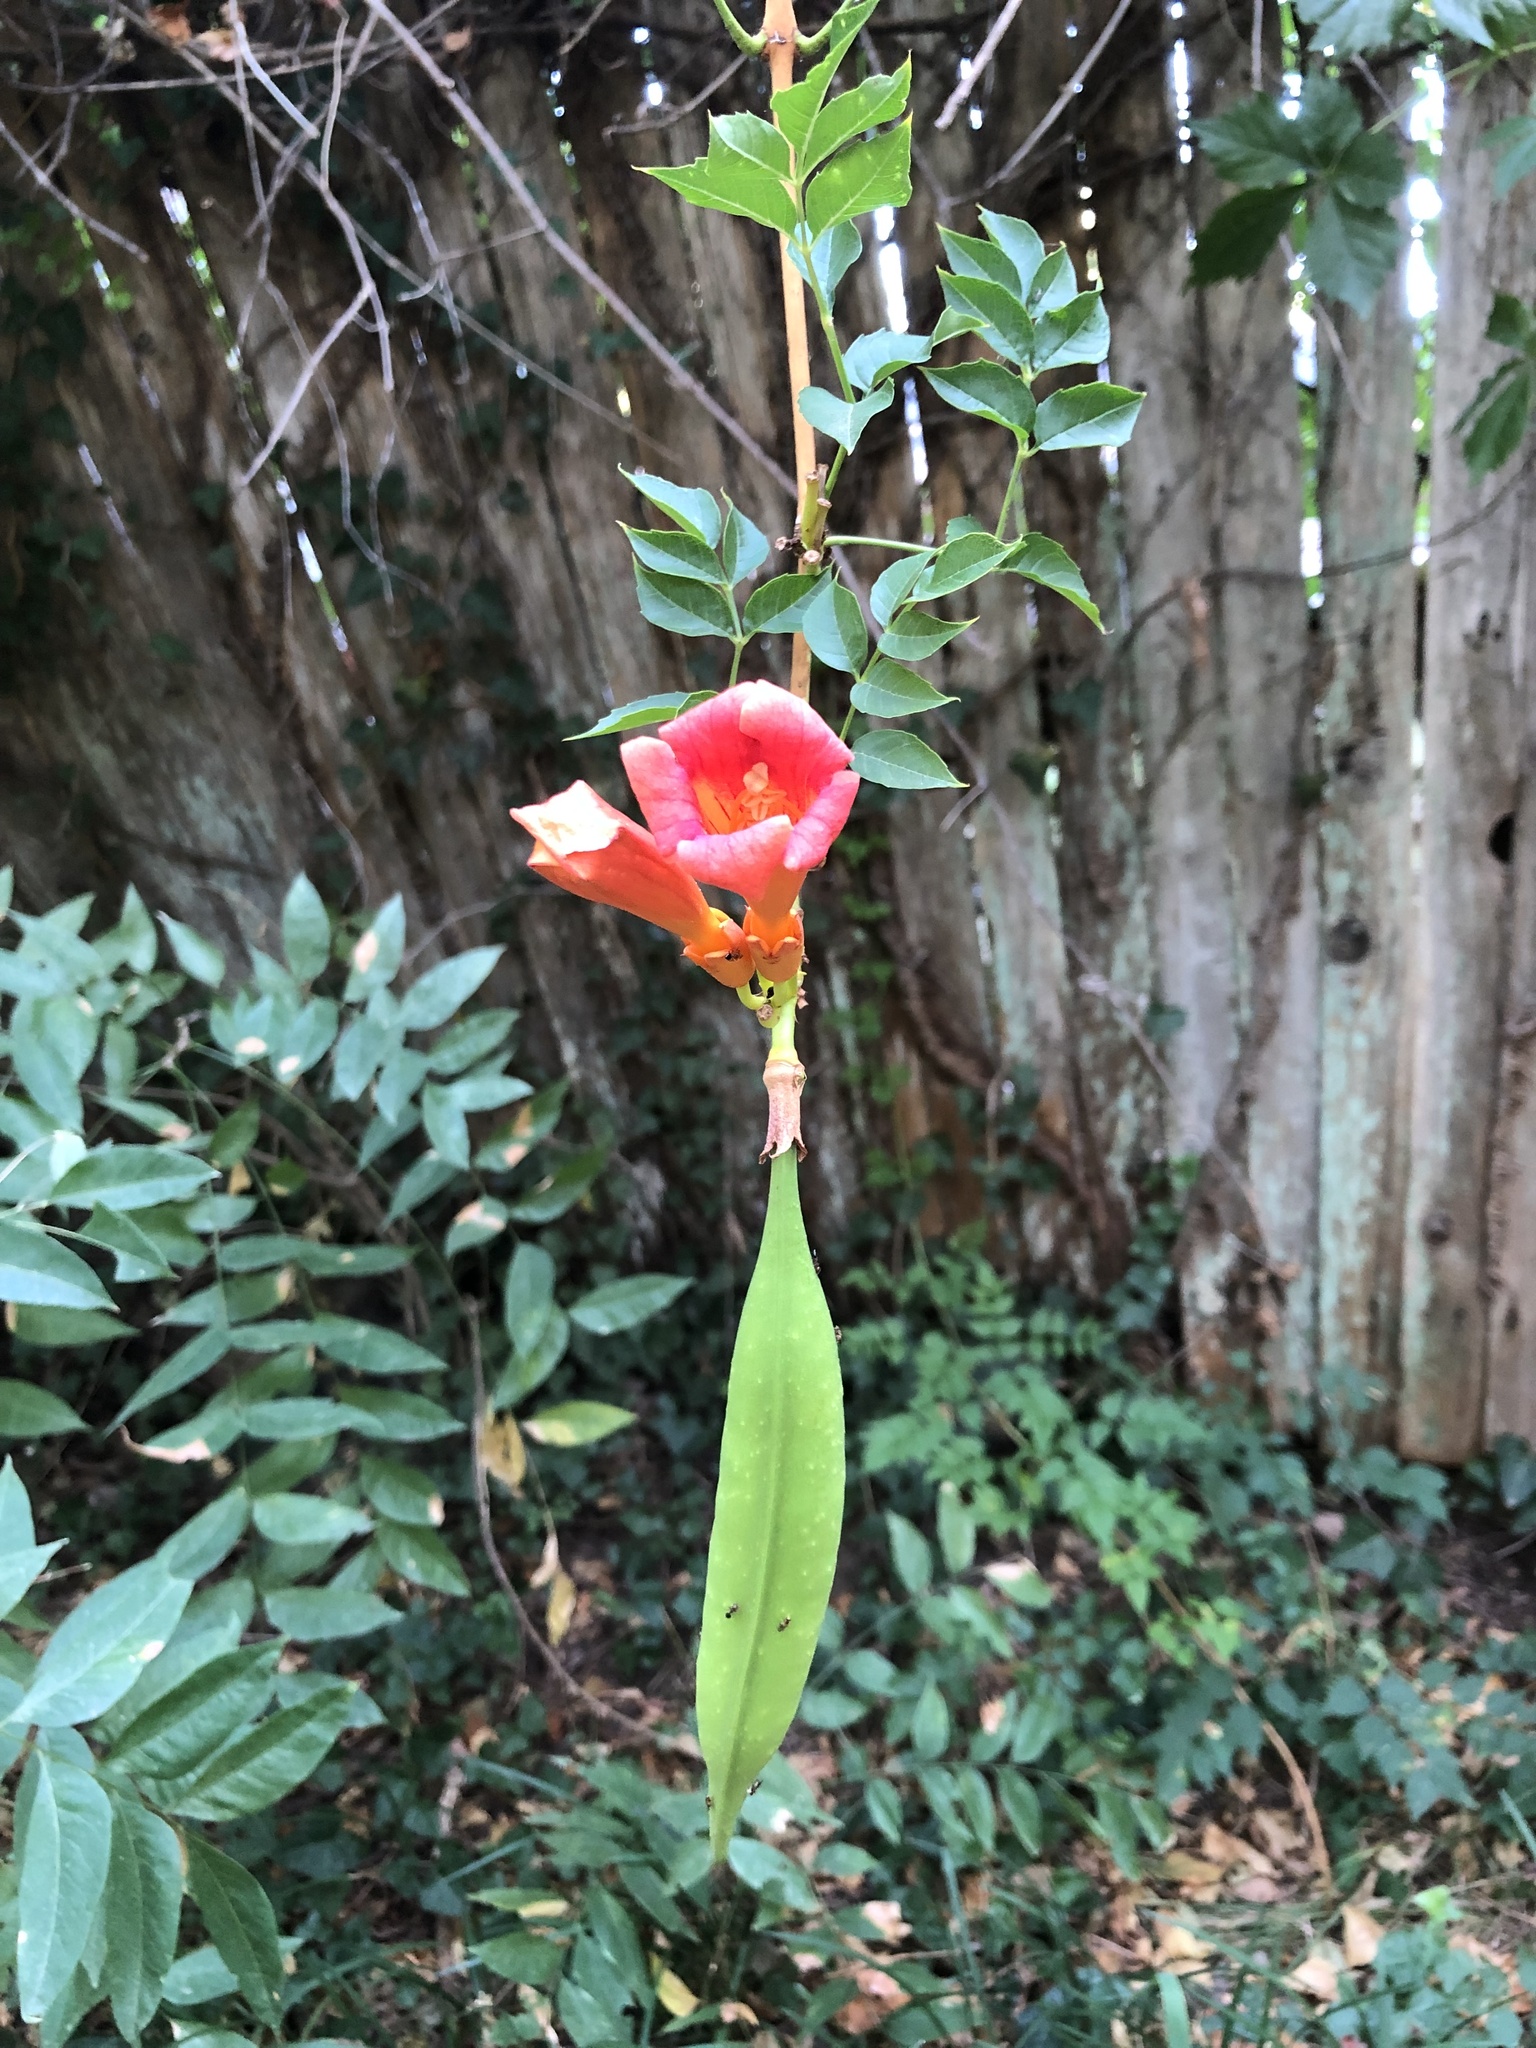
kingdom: Plantae
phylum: Tracheophyta
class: Magnoliopsida
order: Lamiales
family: Bignoniaceae
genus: Campsis
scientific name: Campsis radicans
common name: Trumpet-creeper
